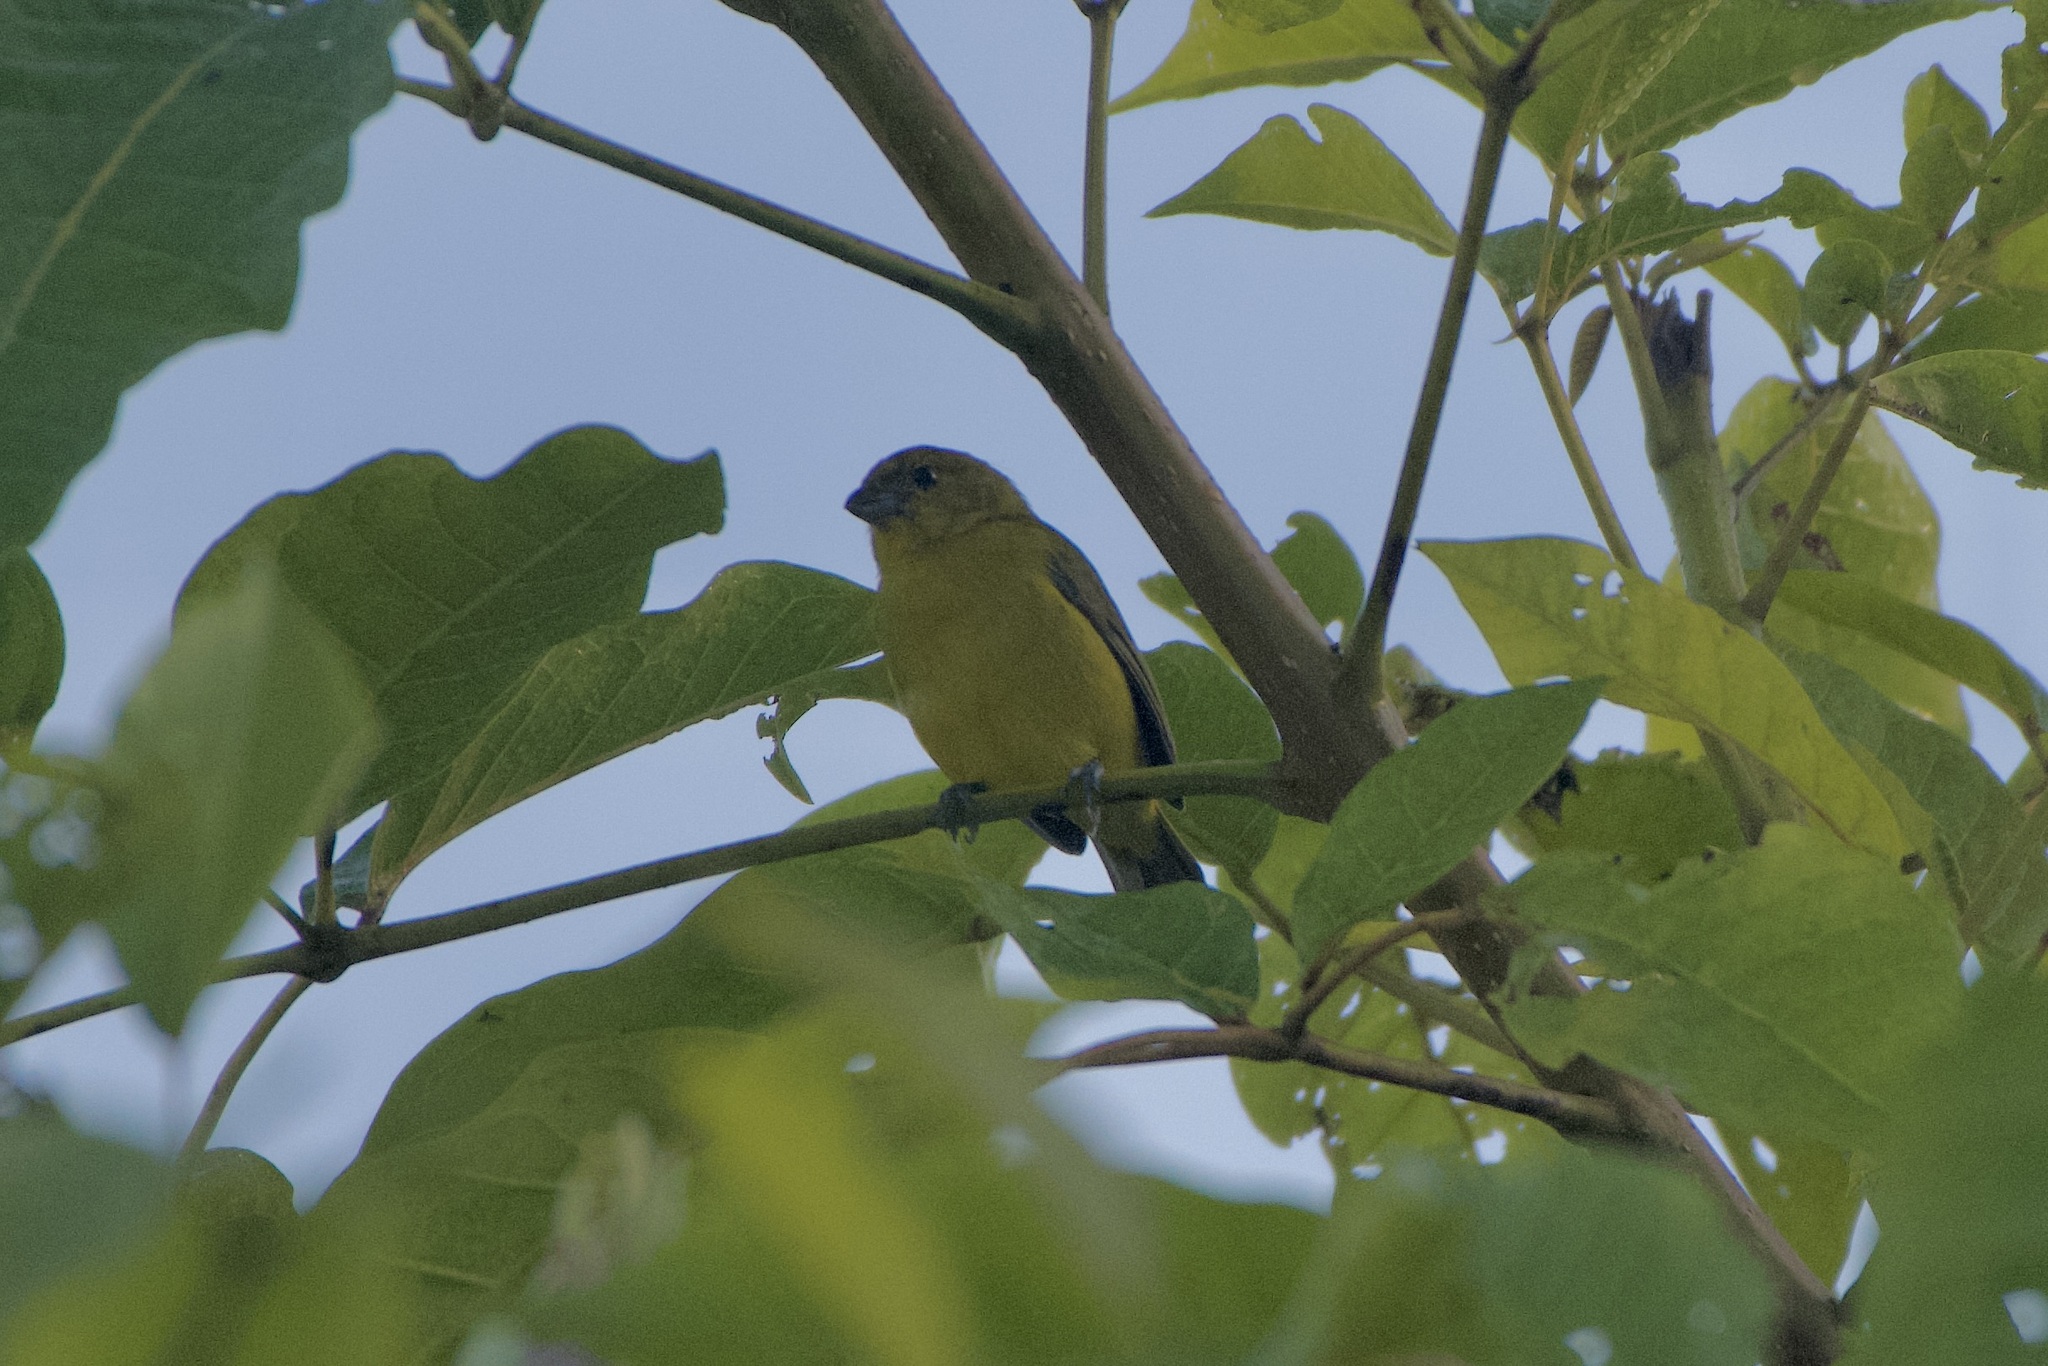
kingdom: Animalia
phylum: Chordata
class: Aves
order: Passeriformes
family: Fringillidae
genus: Euphonia
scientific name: Euphonia laniirostris
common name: Thick-billed euphonia
